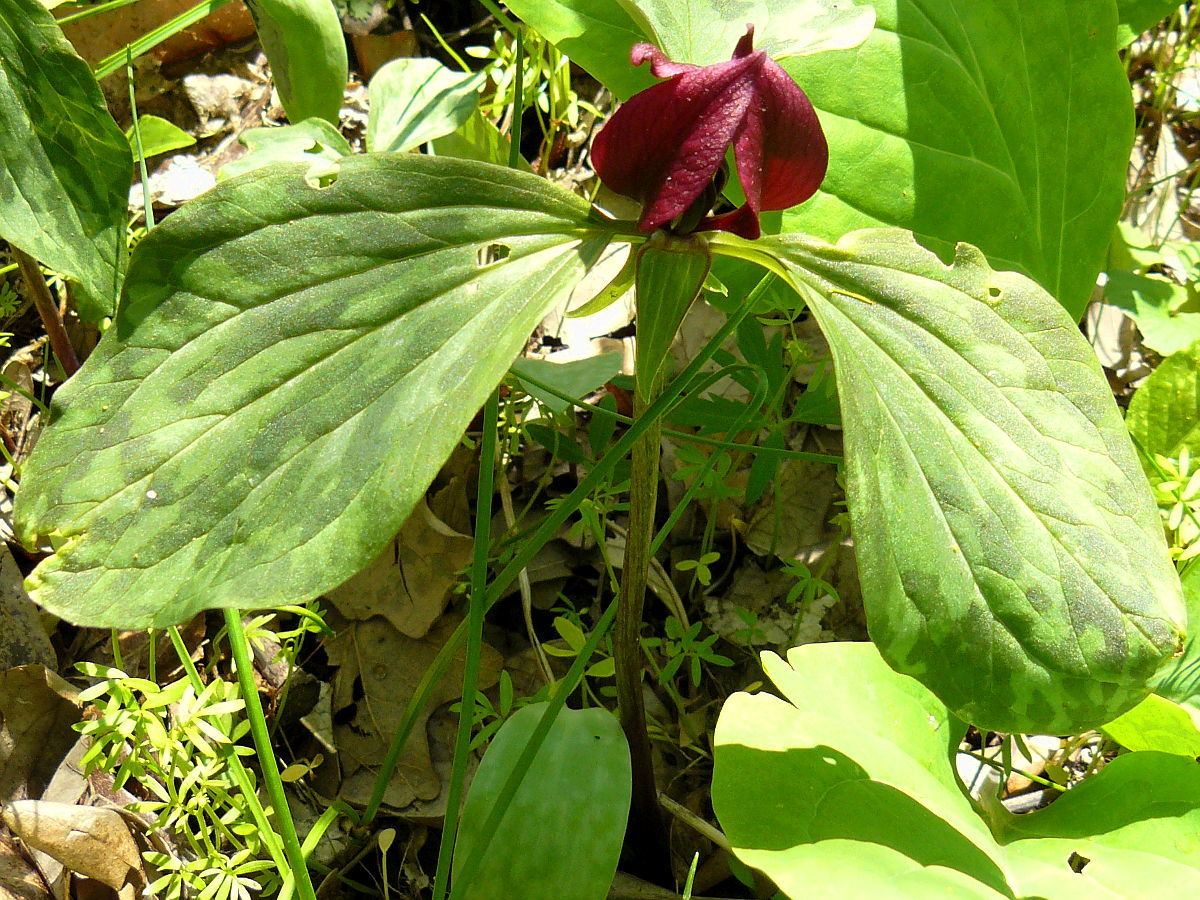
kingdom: Plantae
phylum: Tracheophyta
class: Liliopsida
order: Liliales
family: Melanthiaceae
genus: Trillium
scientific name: Trillium recurvatum
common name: Bloody butcher
